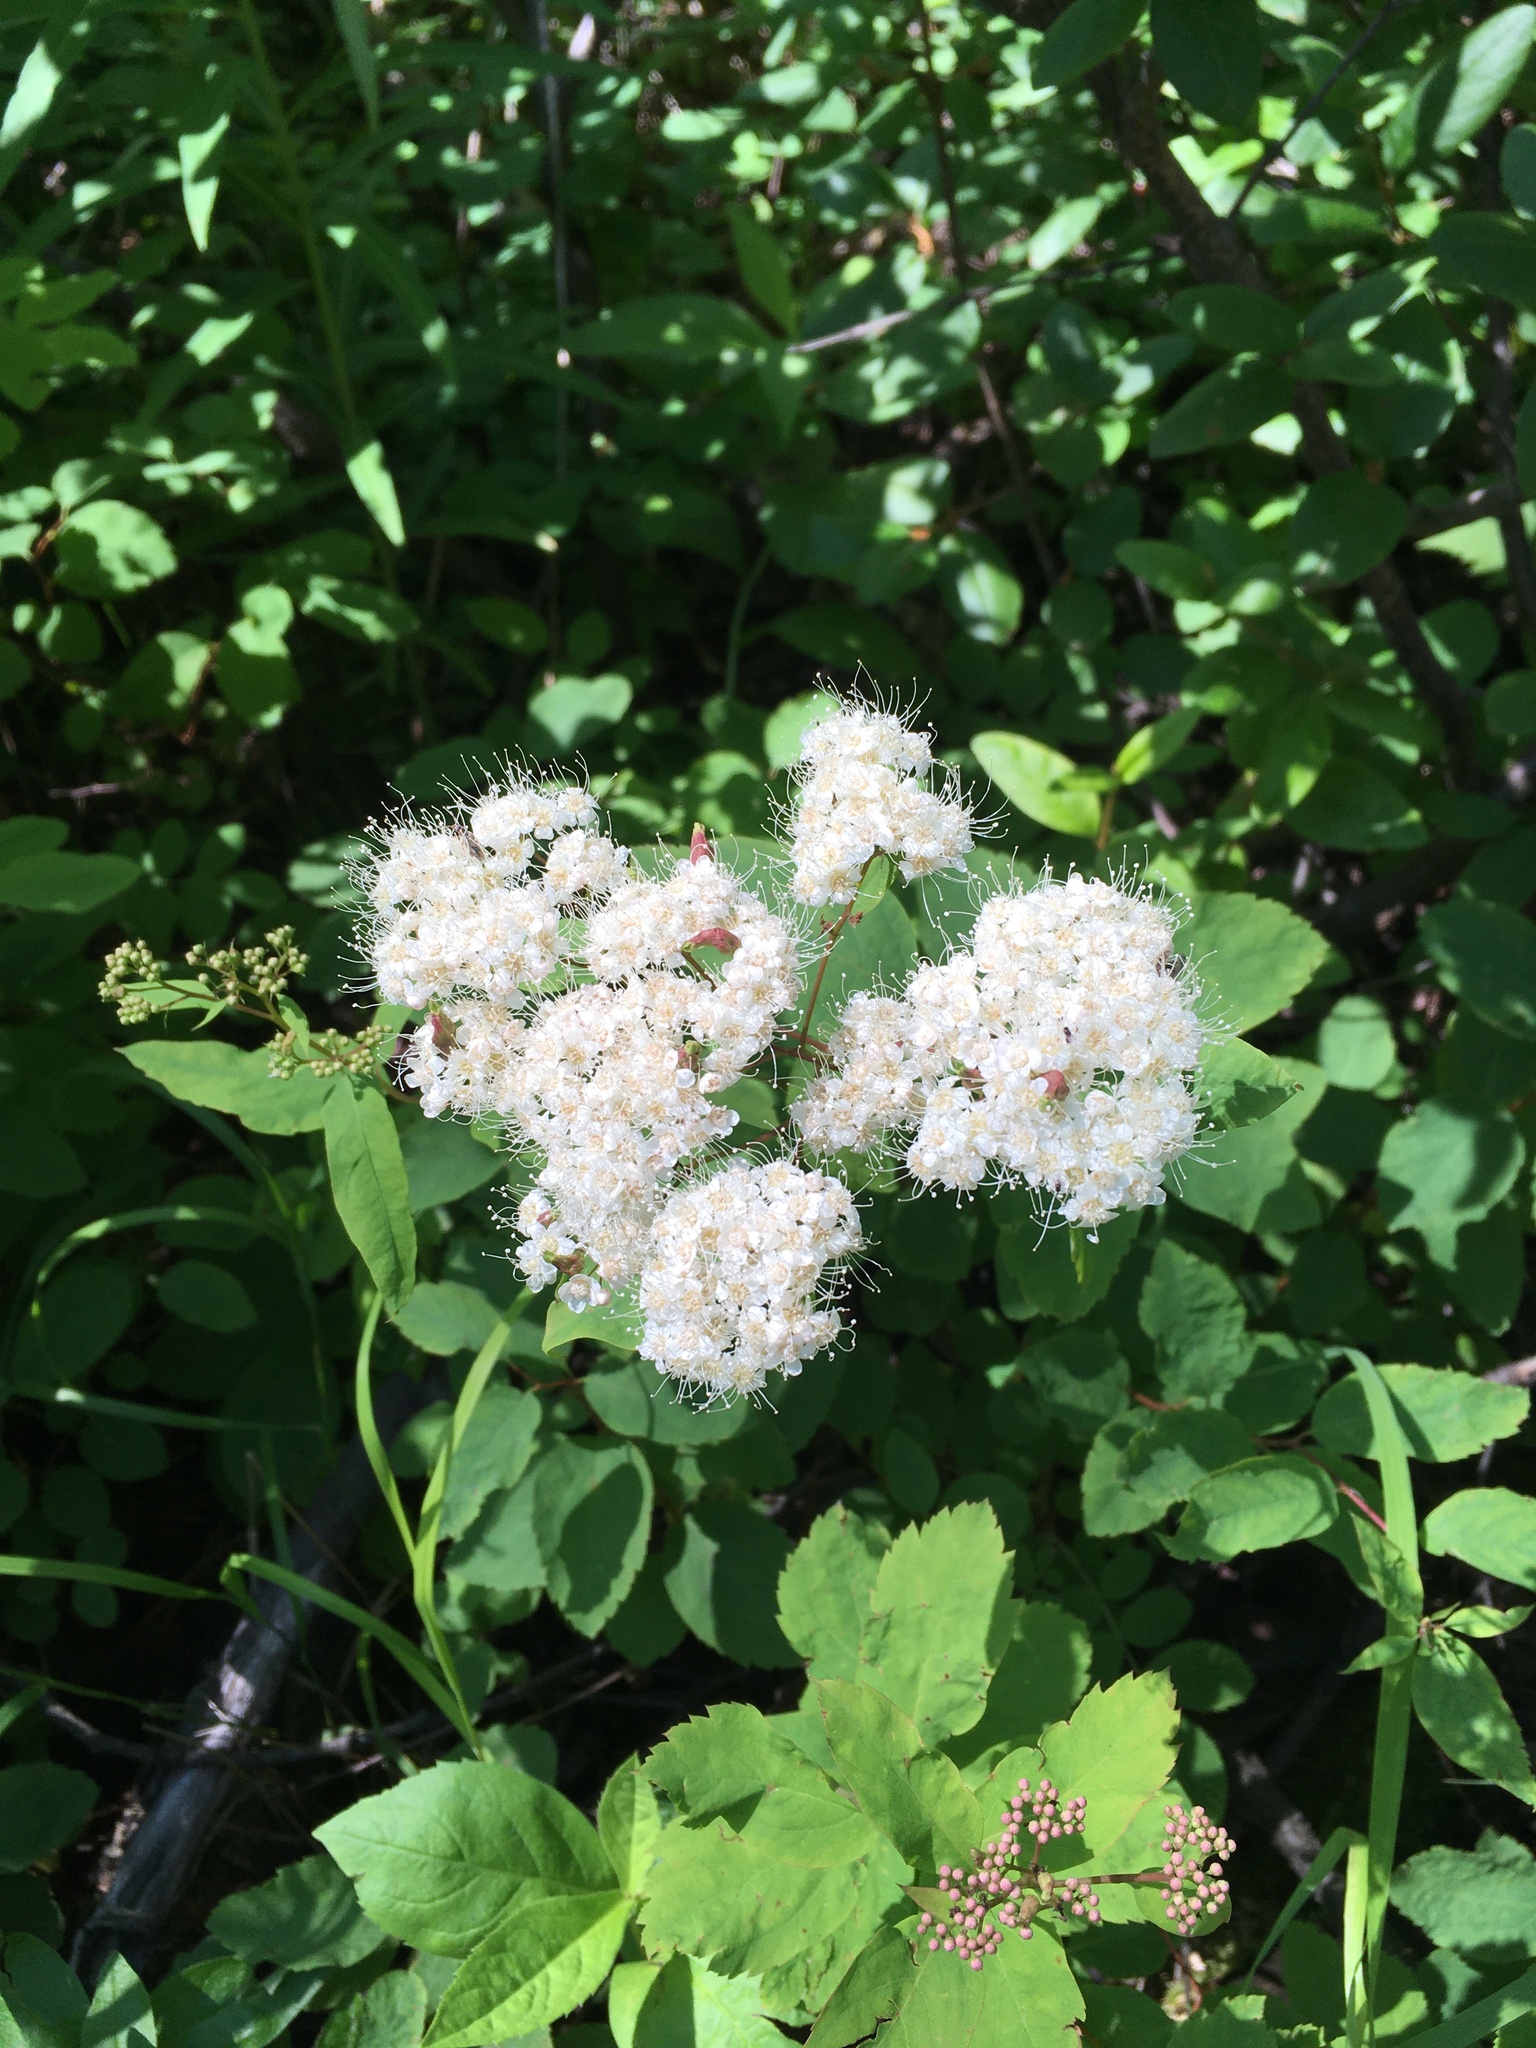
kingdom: Plantae
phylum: Tracheophyta
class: Magnoliopsida
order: Rosales
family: Rosaceae
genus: Spiraea
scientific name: Spiraea lucida
